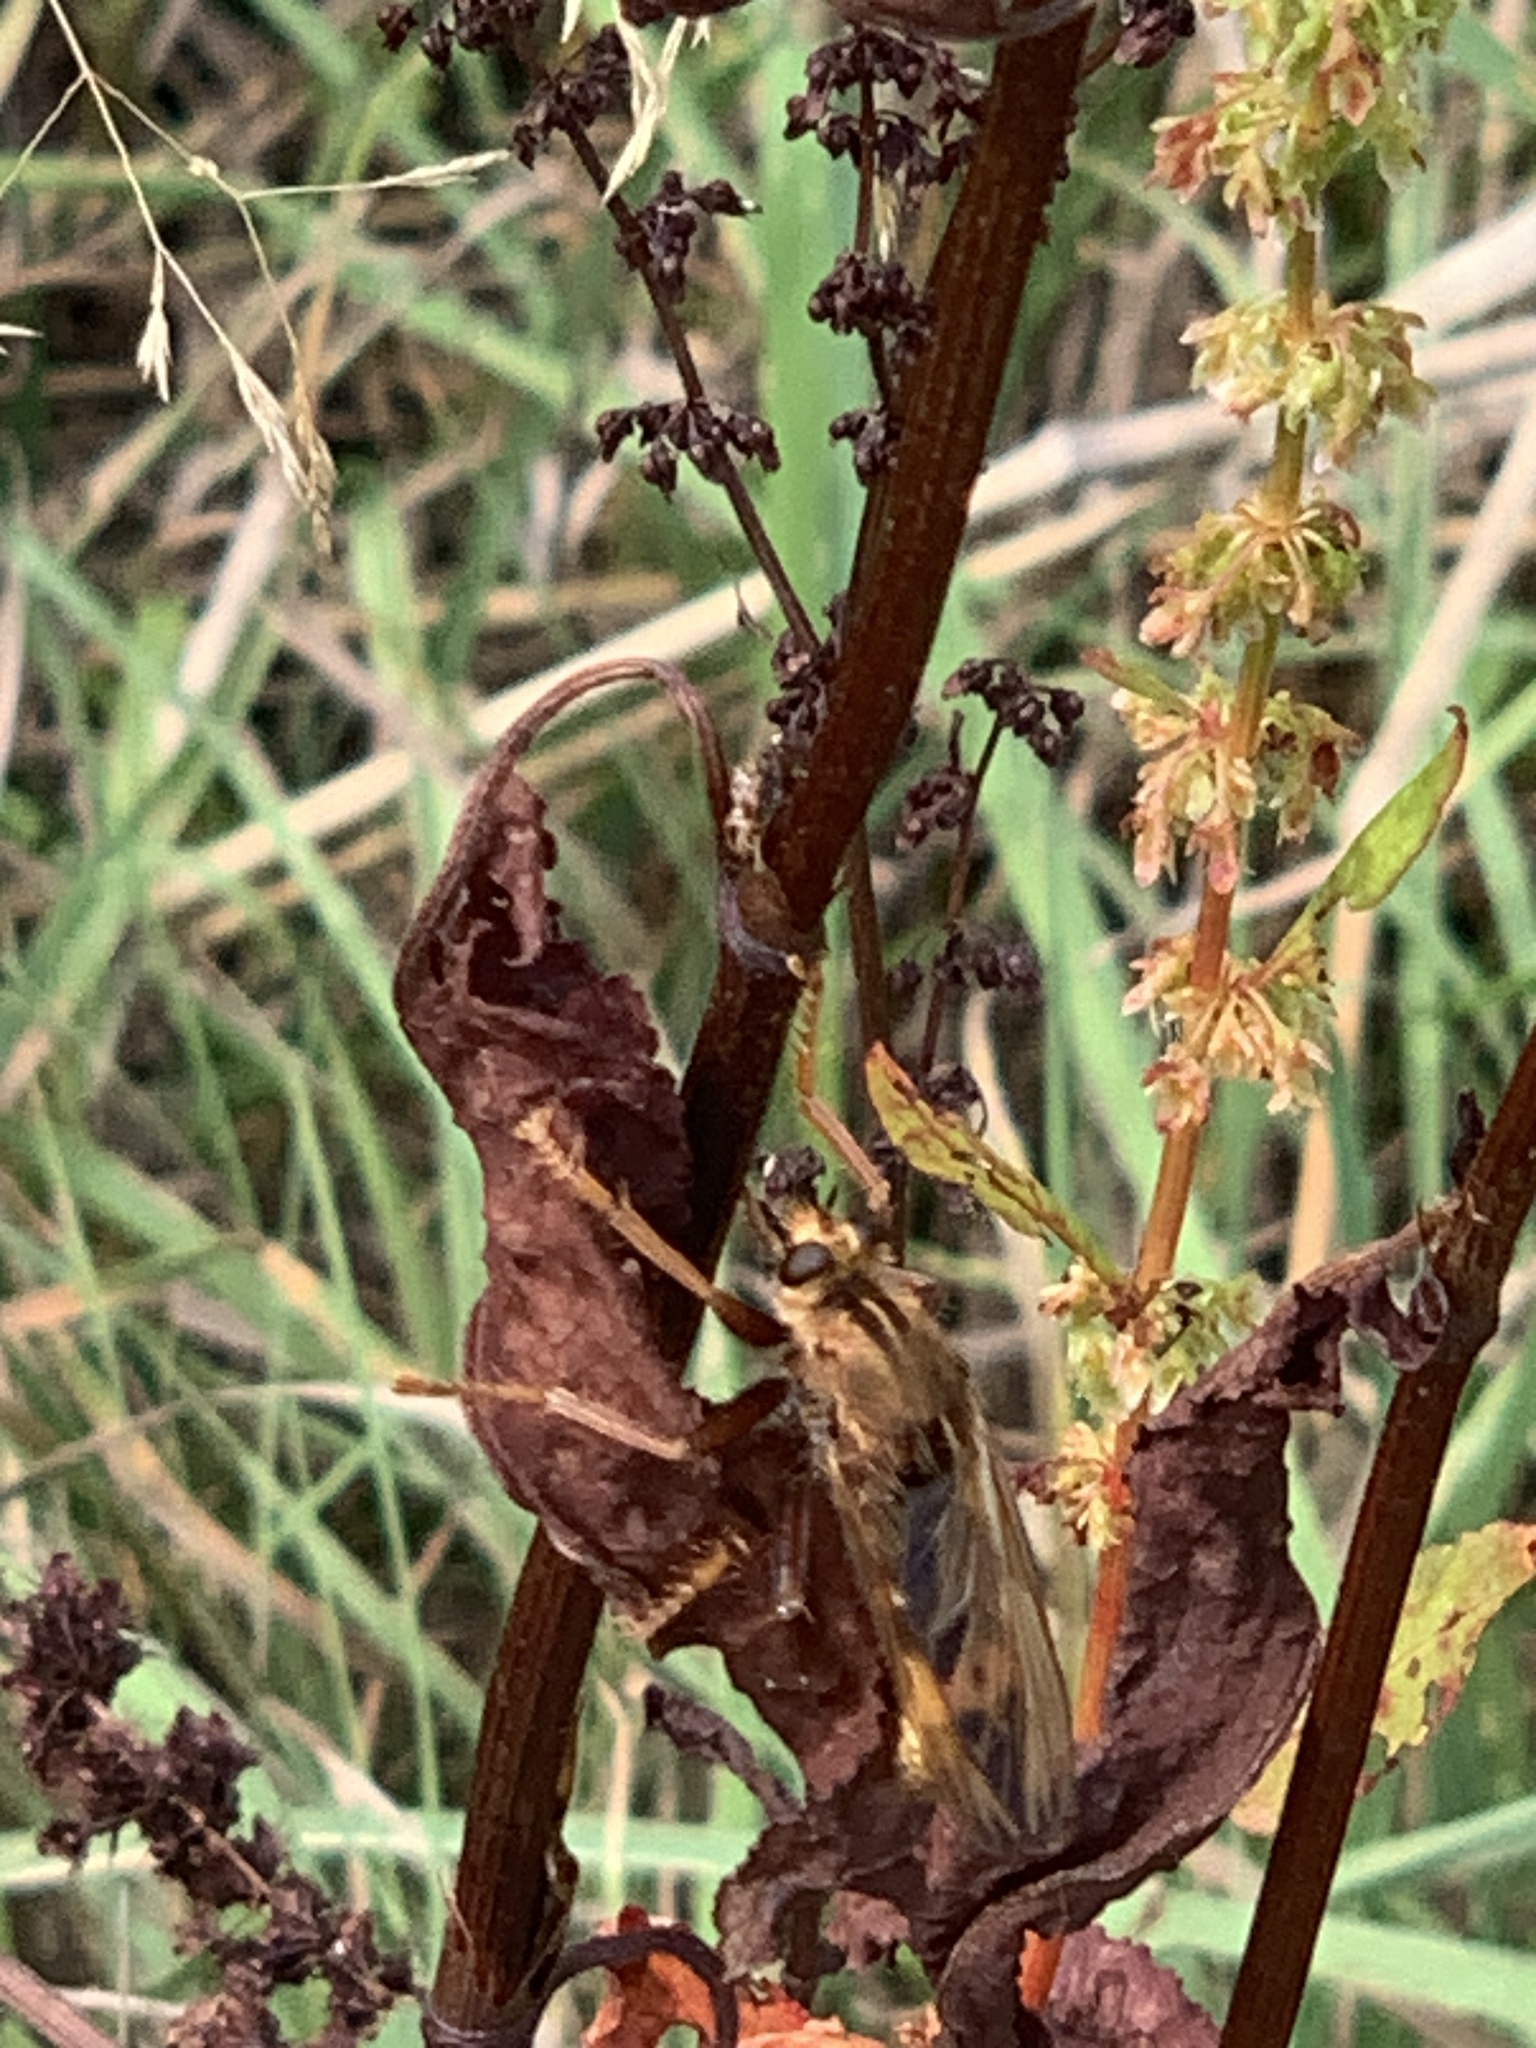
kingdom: Animalia
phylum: Arthropoda
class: Insecta
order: Diptera
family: Asilidae
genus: Asilus
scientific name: Asilus crabroniformis
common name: Hornet robberfly
